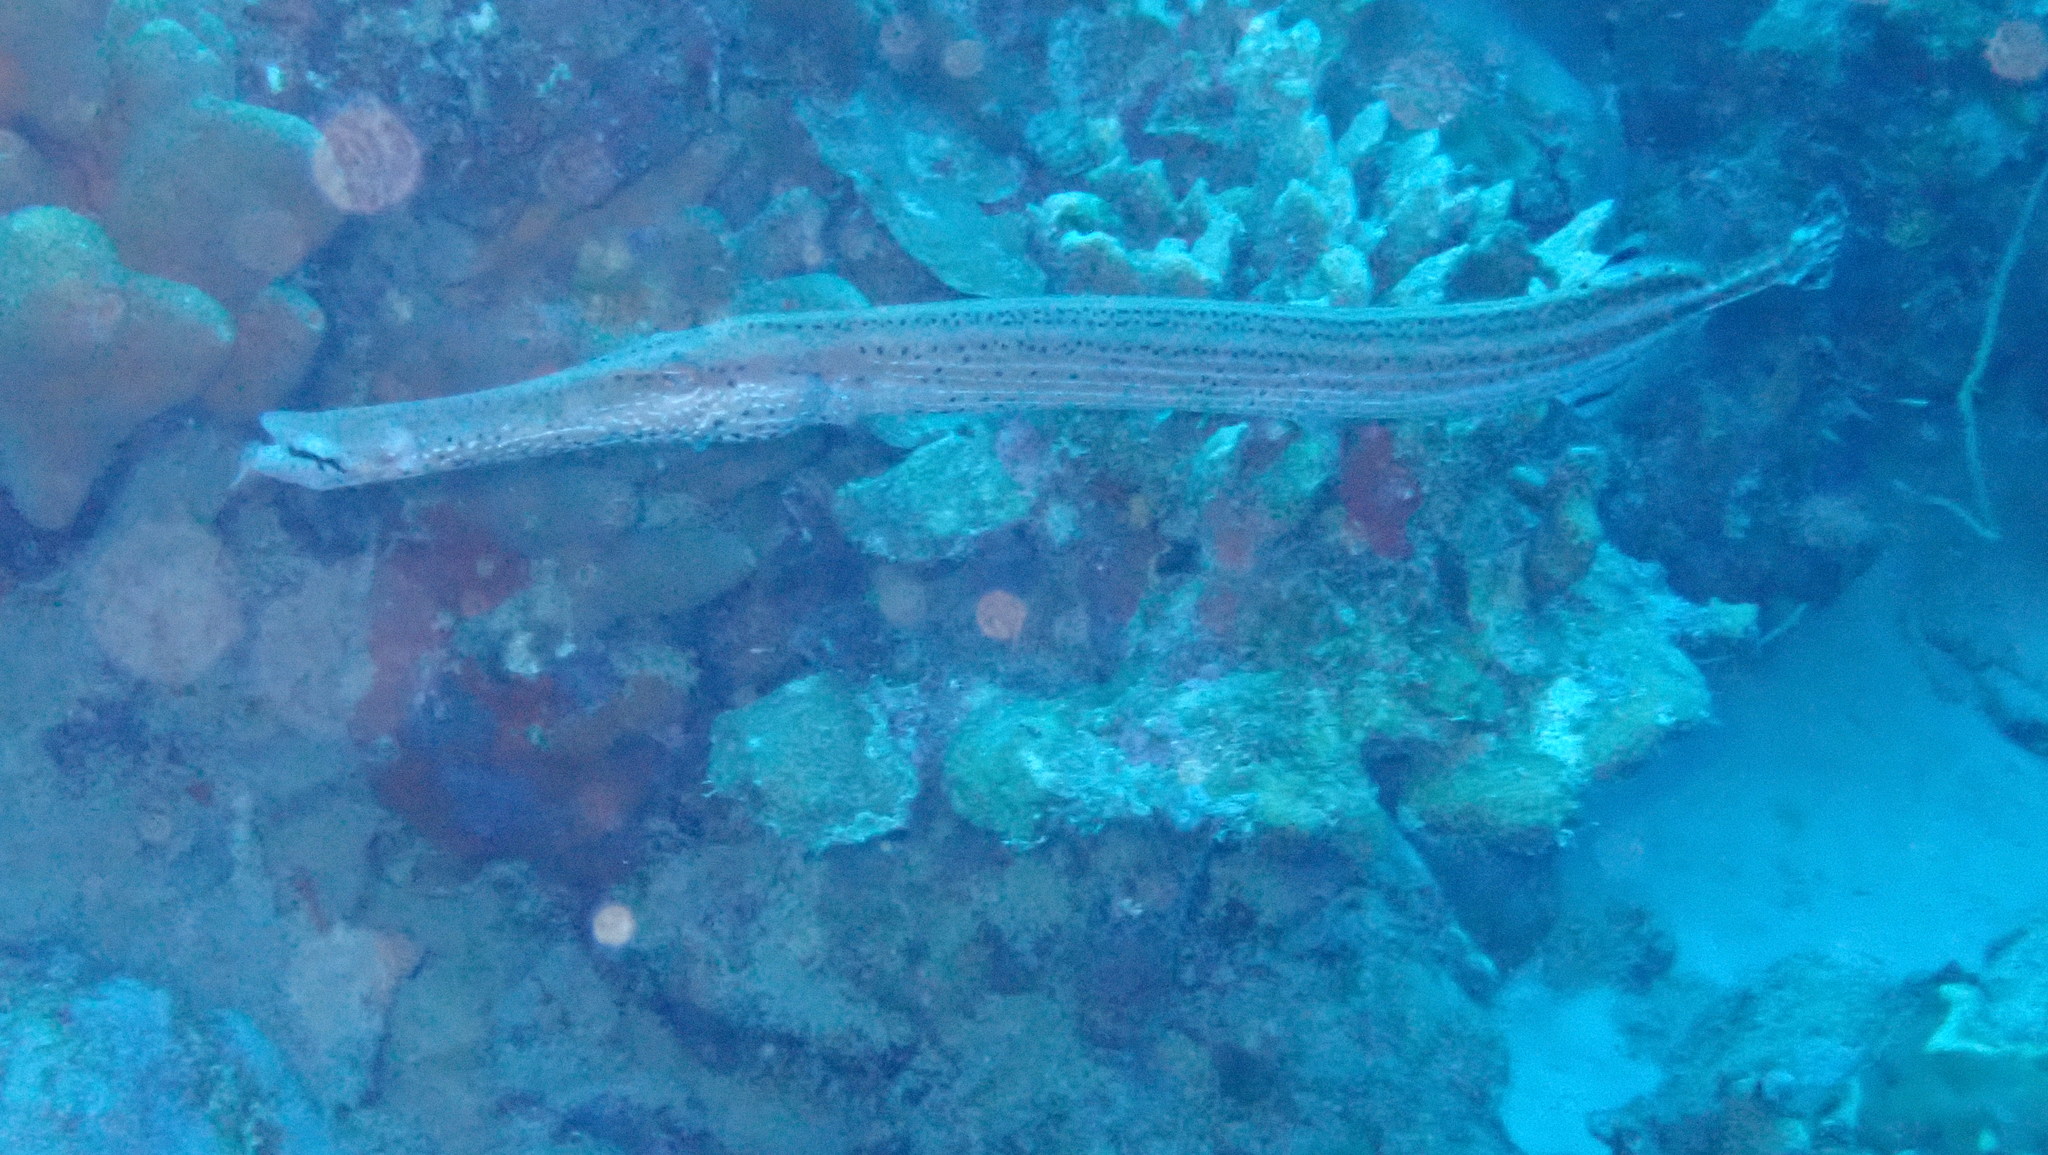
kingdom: Animalia
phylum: Chordata
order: Syngnathiformes
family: Aulostomidae
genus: Aulostomus
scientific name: Aulostomus maculatus
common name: West atlantic trumpetfish
